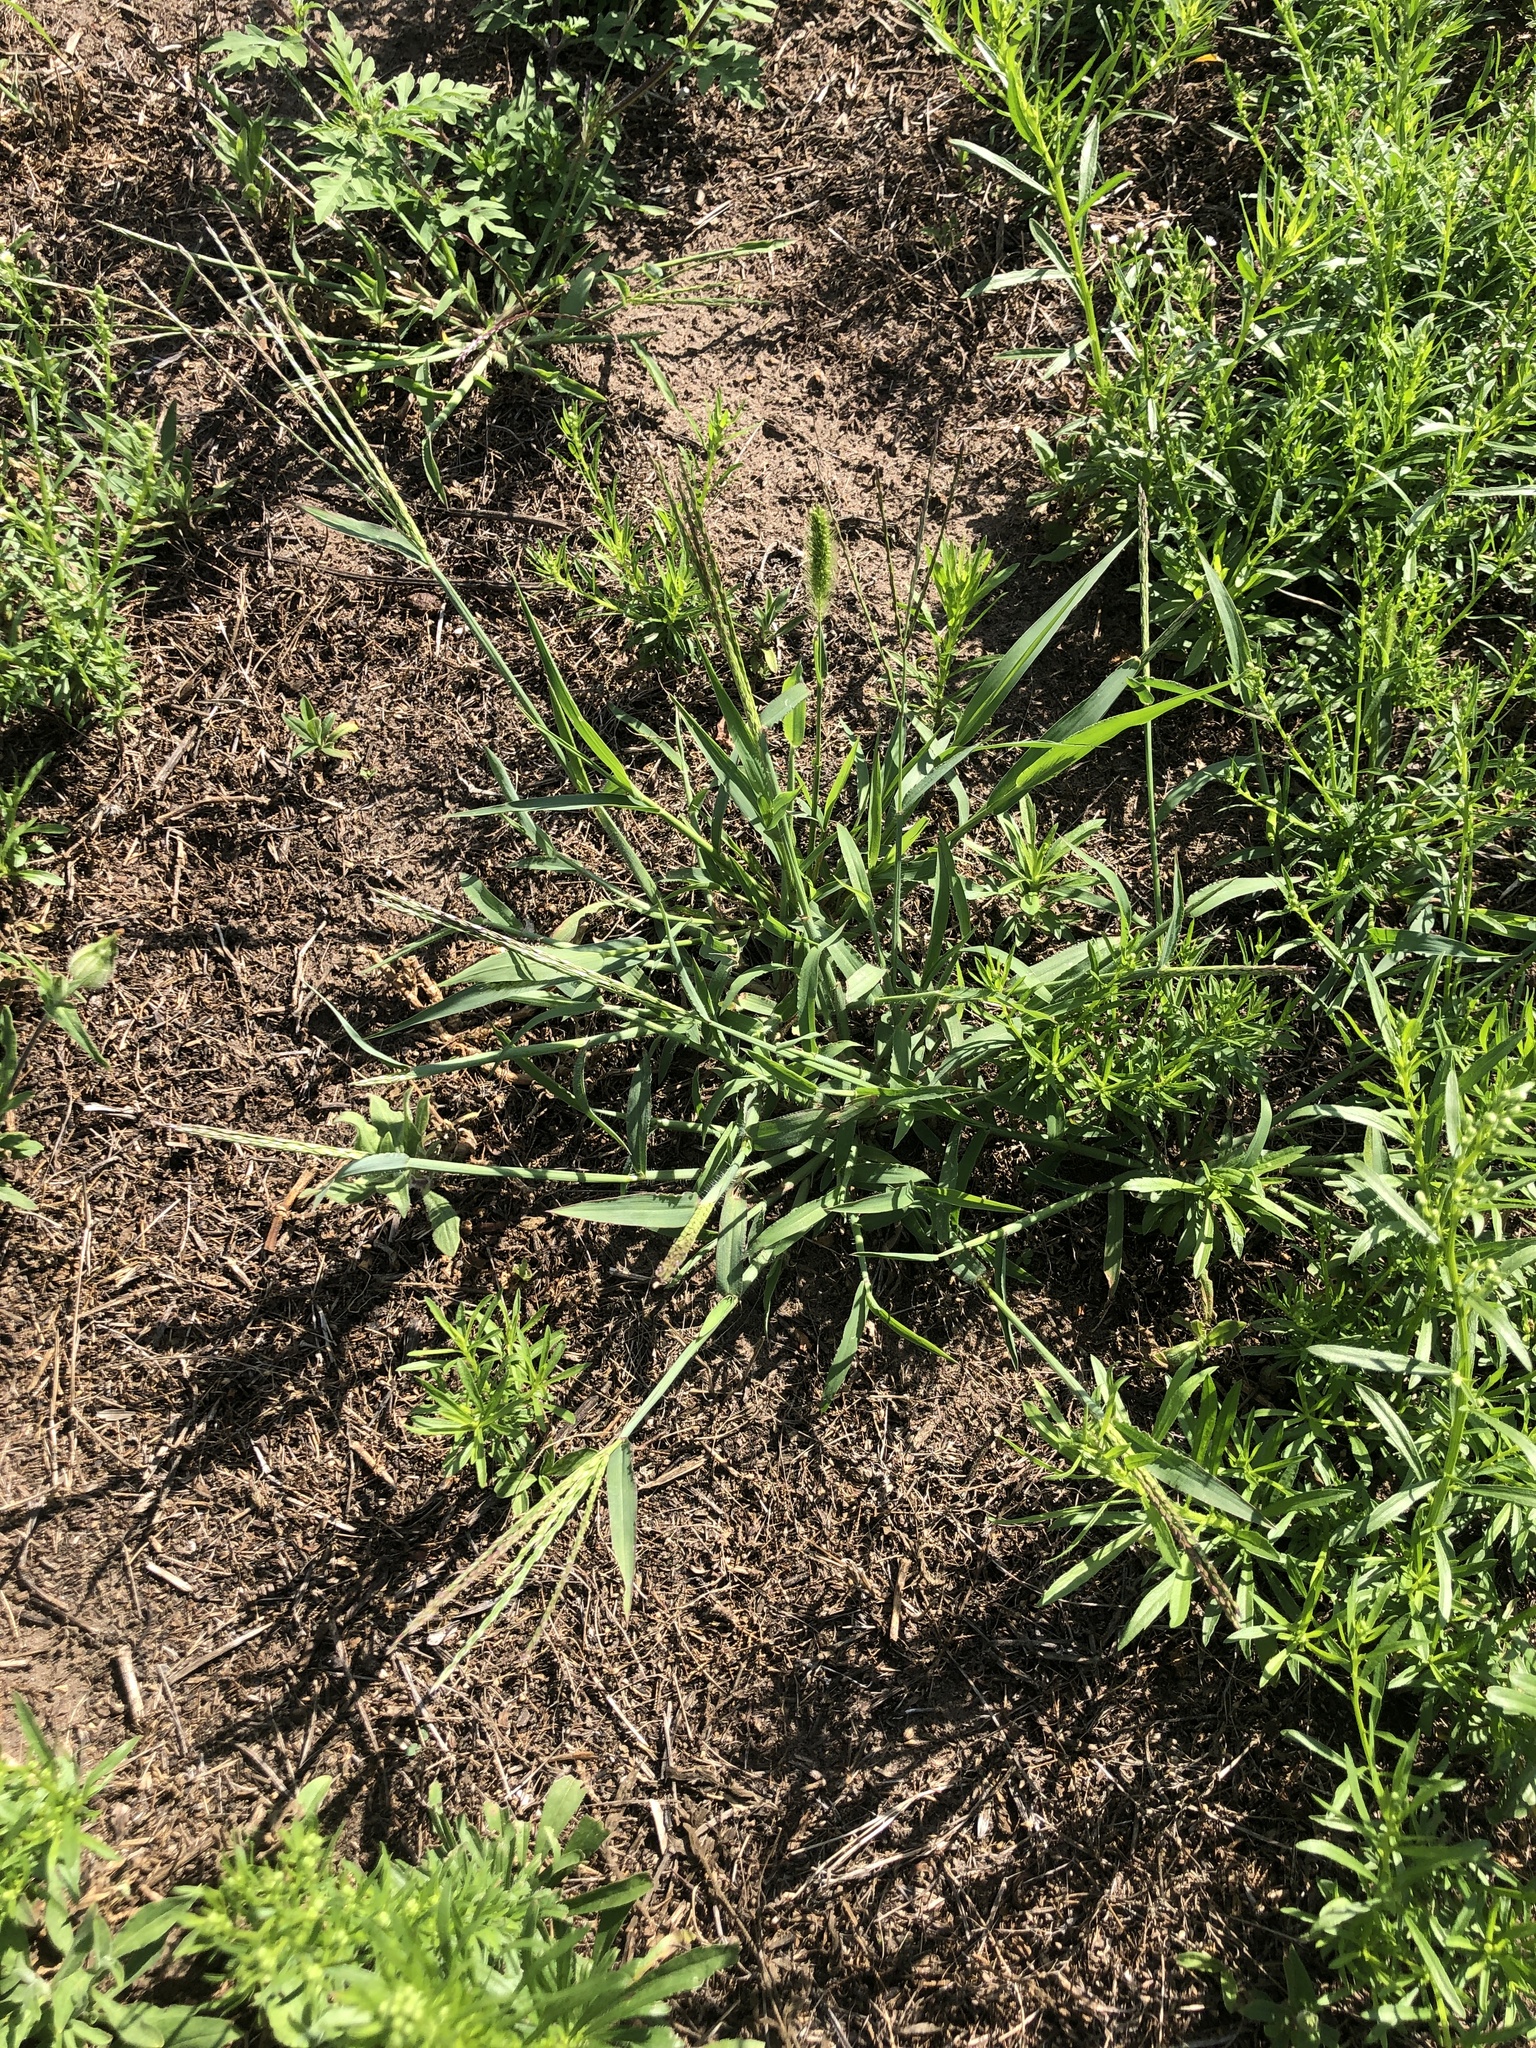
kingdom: Plantae
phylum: Tracheophyta
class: Liliopsida
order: Poales
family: Poaceae
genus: Digitaria
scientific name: Digitaria sanguinalis
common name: Hairy crabgrass
